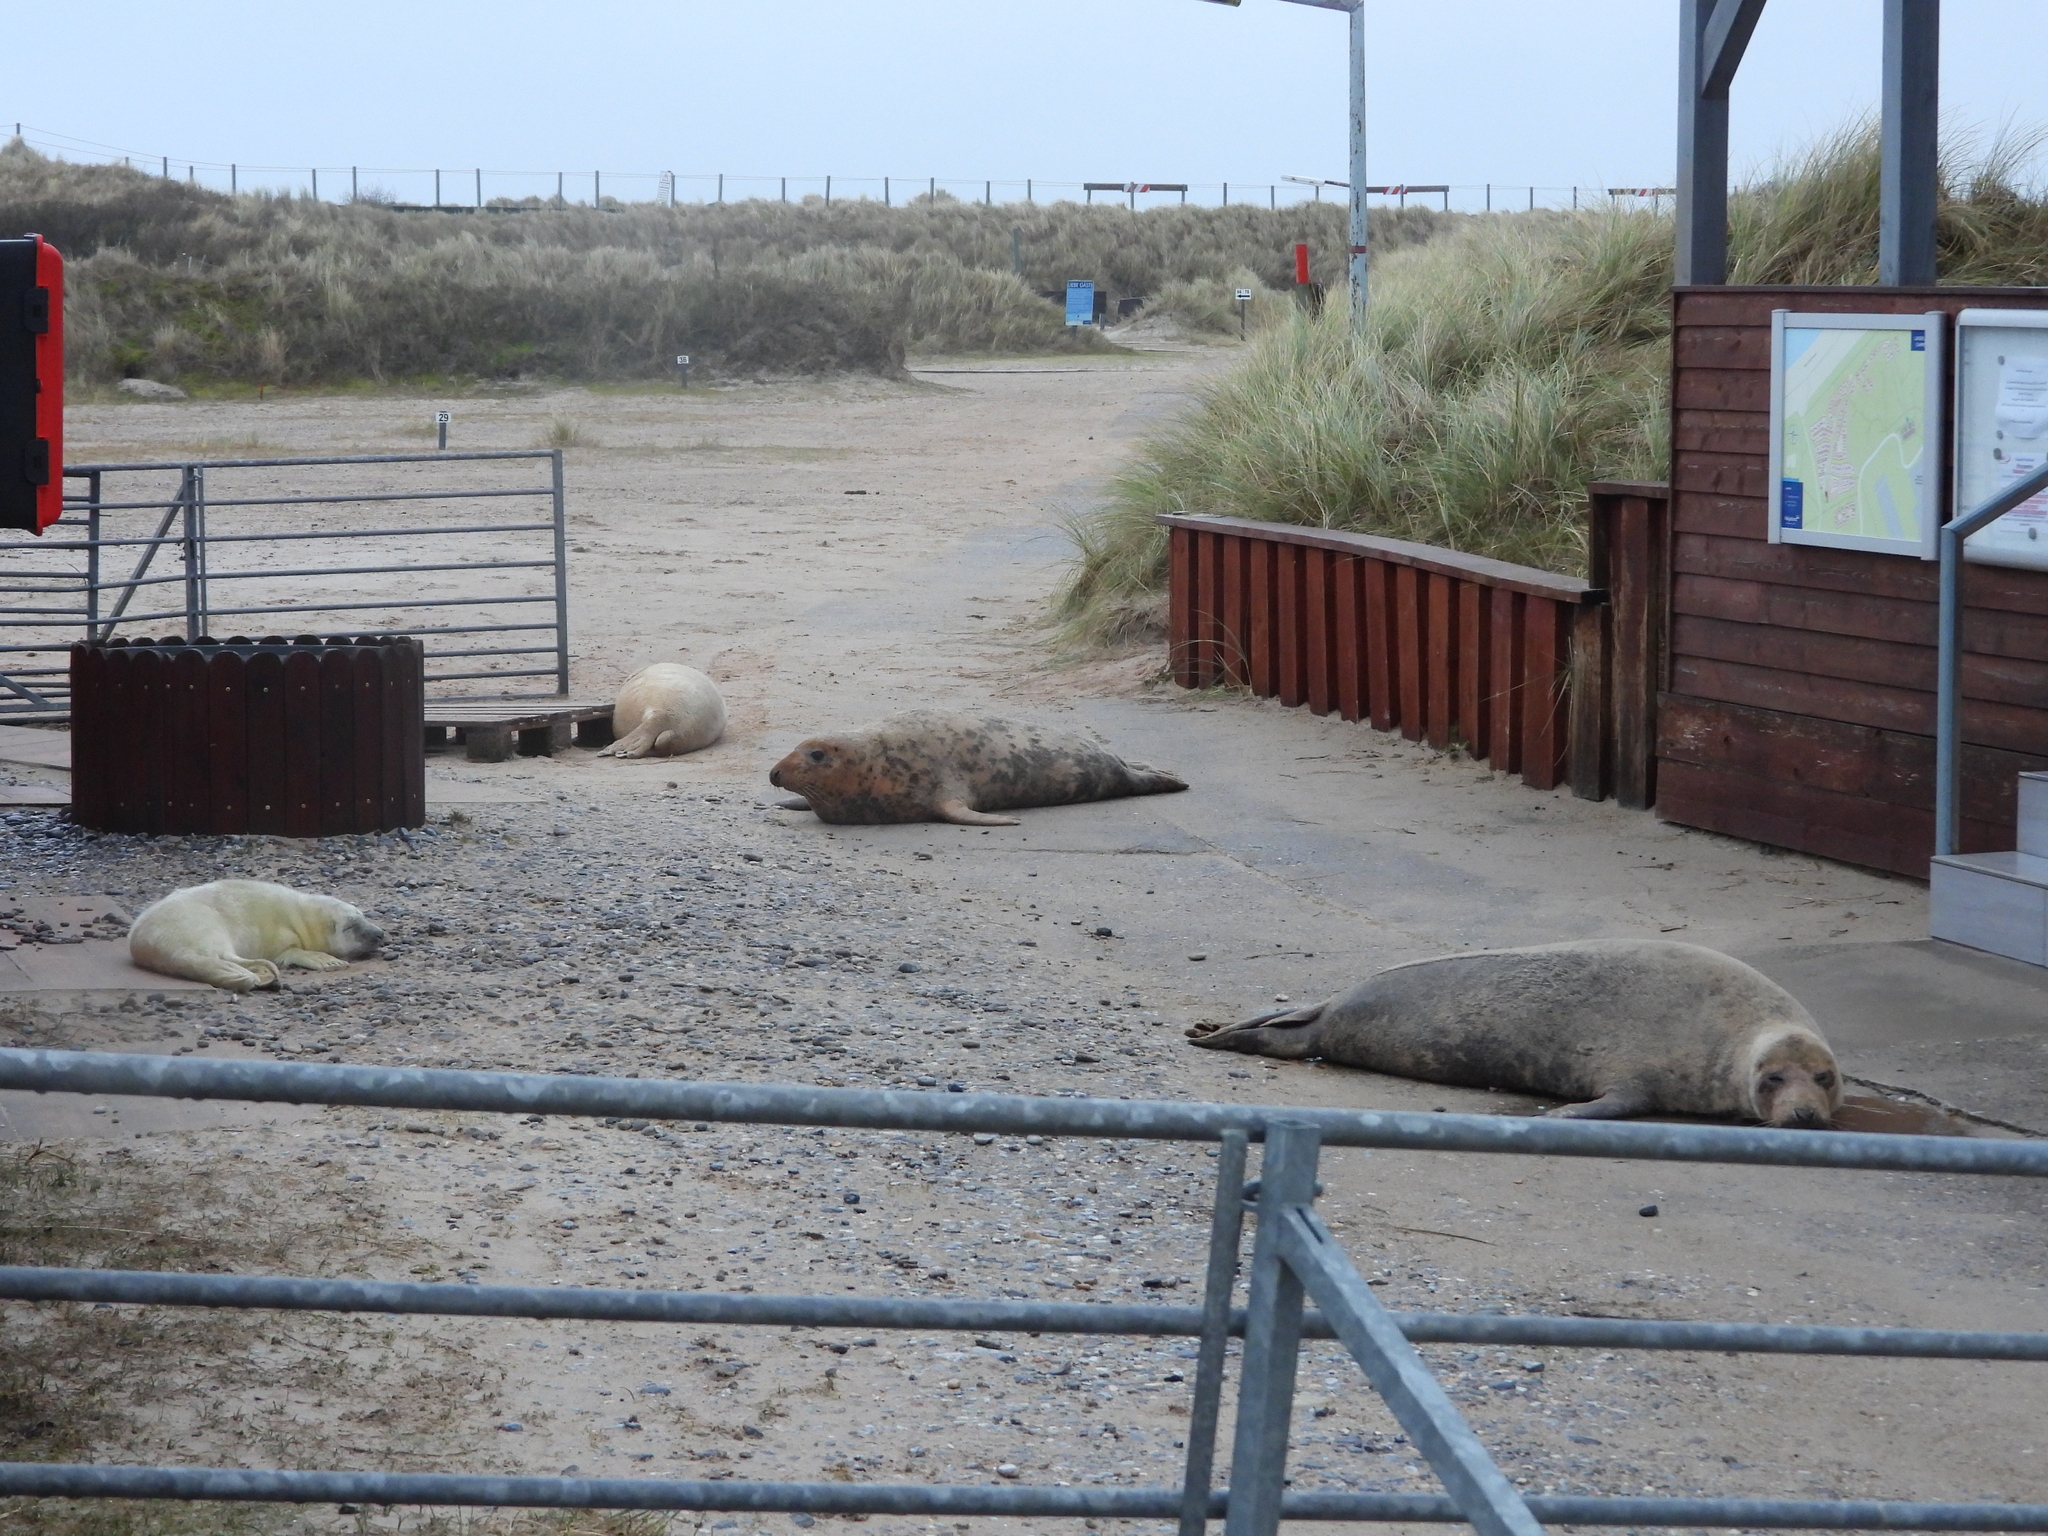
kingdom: Animalia
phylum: Chordata
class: Mammalia
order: Carnivora
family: Phocidae
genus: Halichoerus
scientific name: Halichoerus grypus
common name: Grey seal
